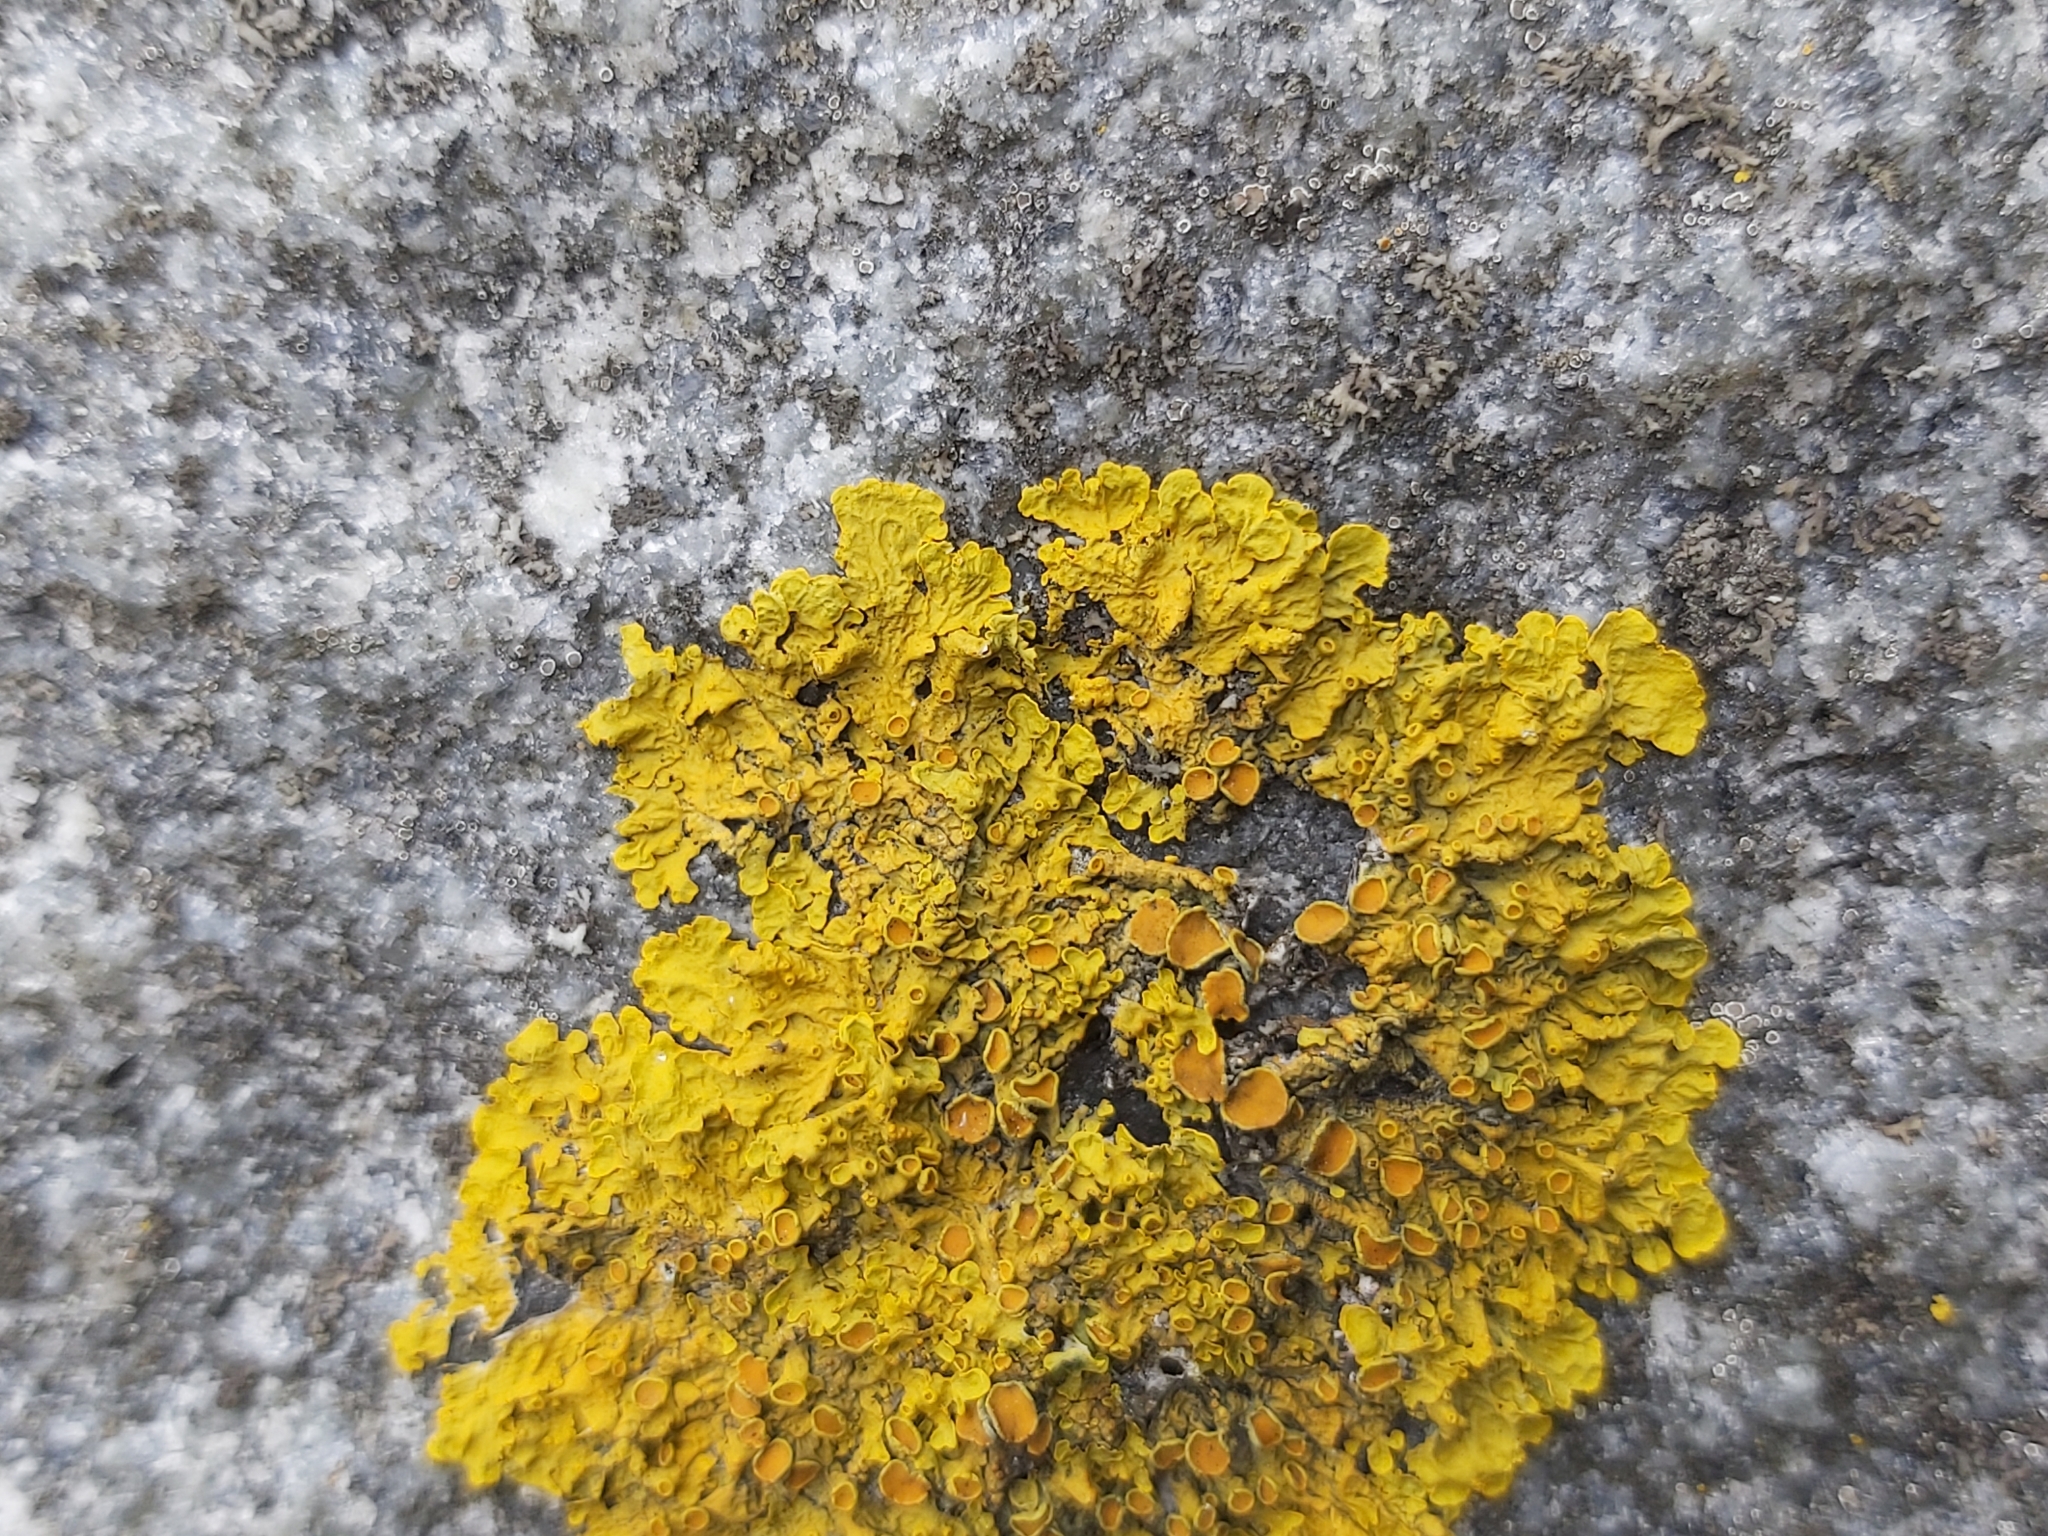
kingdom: Fungi
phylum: Ascomycota
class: Lecanoromycetes
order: Teloschistales
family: Teloschistaceae
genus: Xanthoria
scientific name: Xanthoria parietina
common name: Common orange lichen
